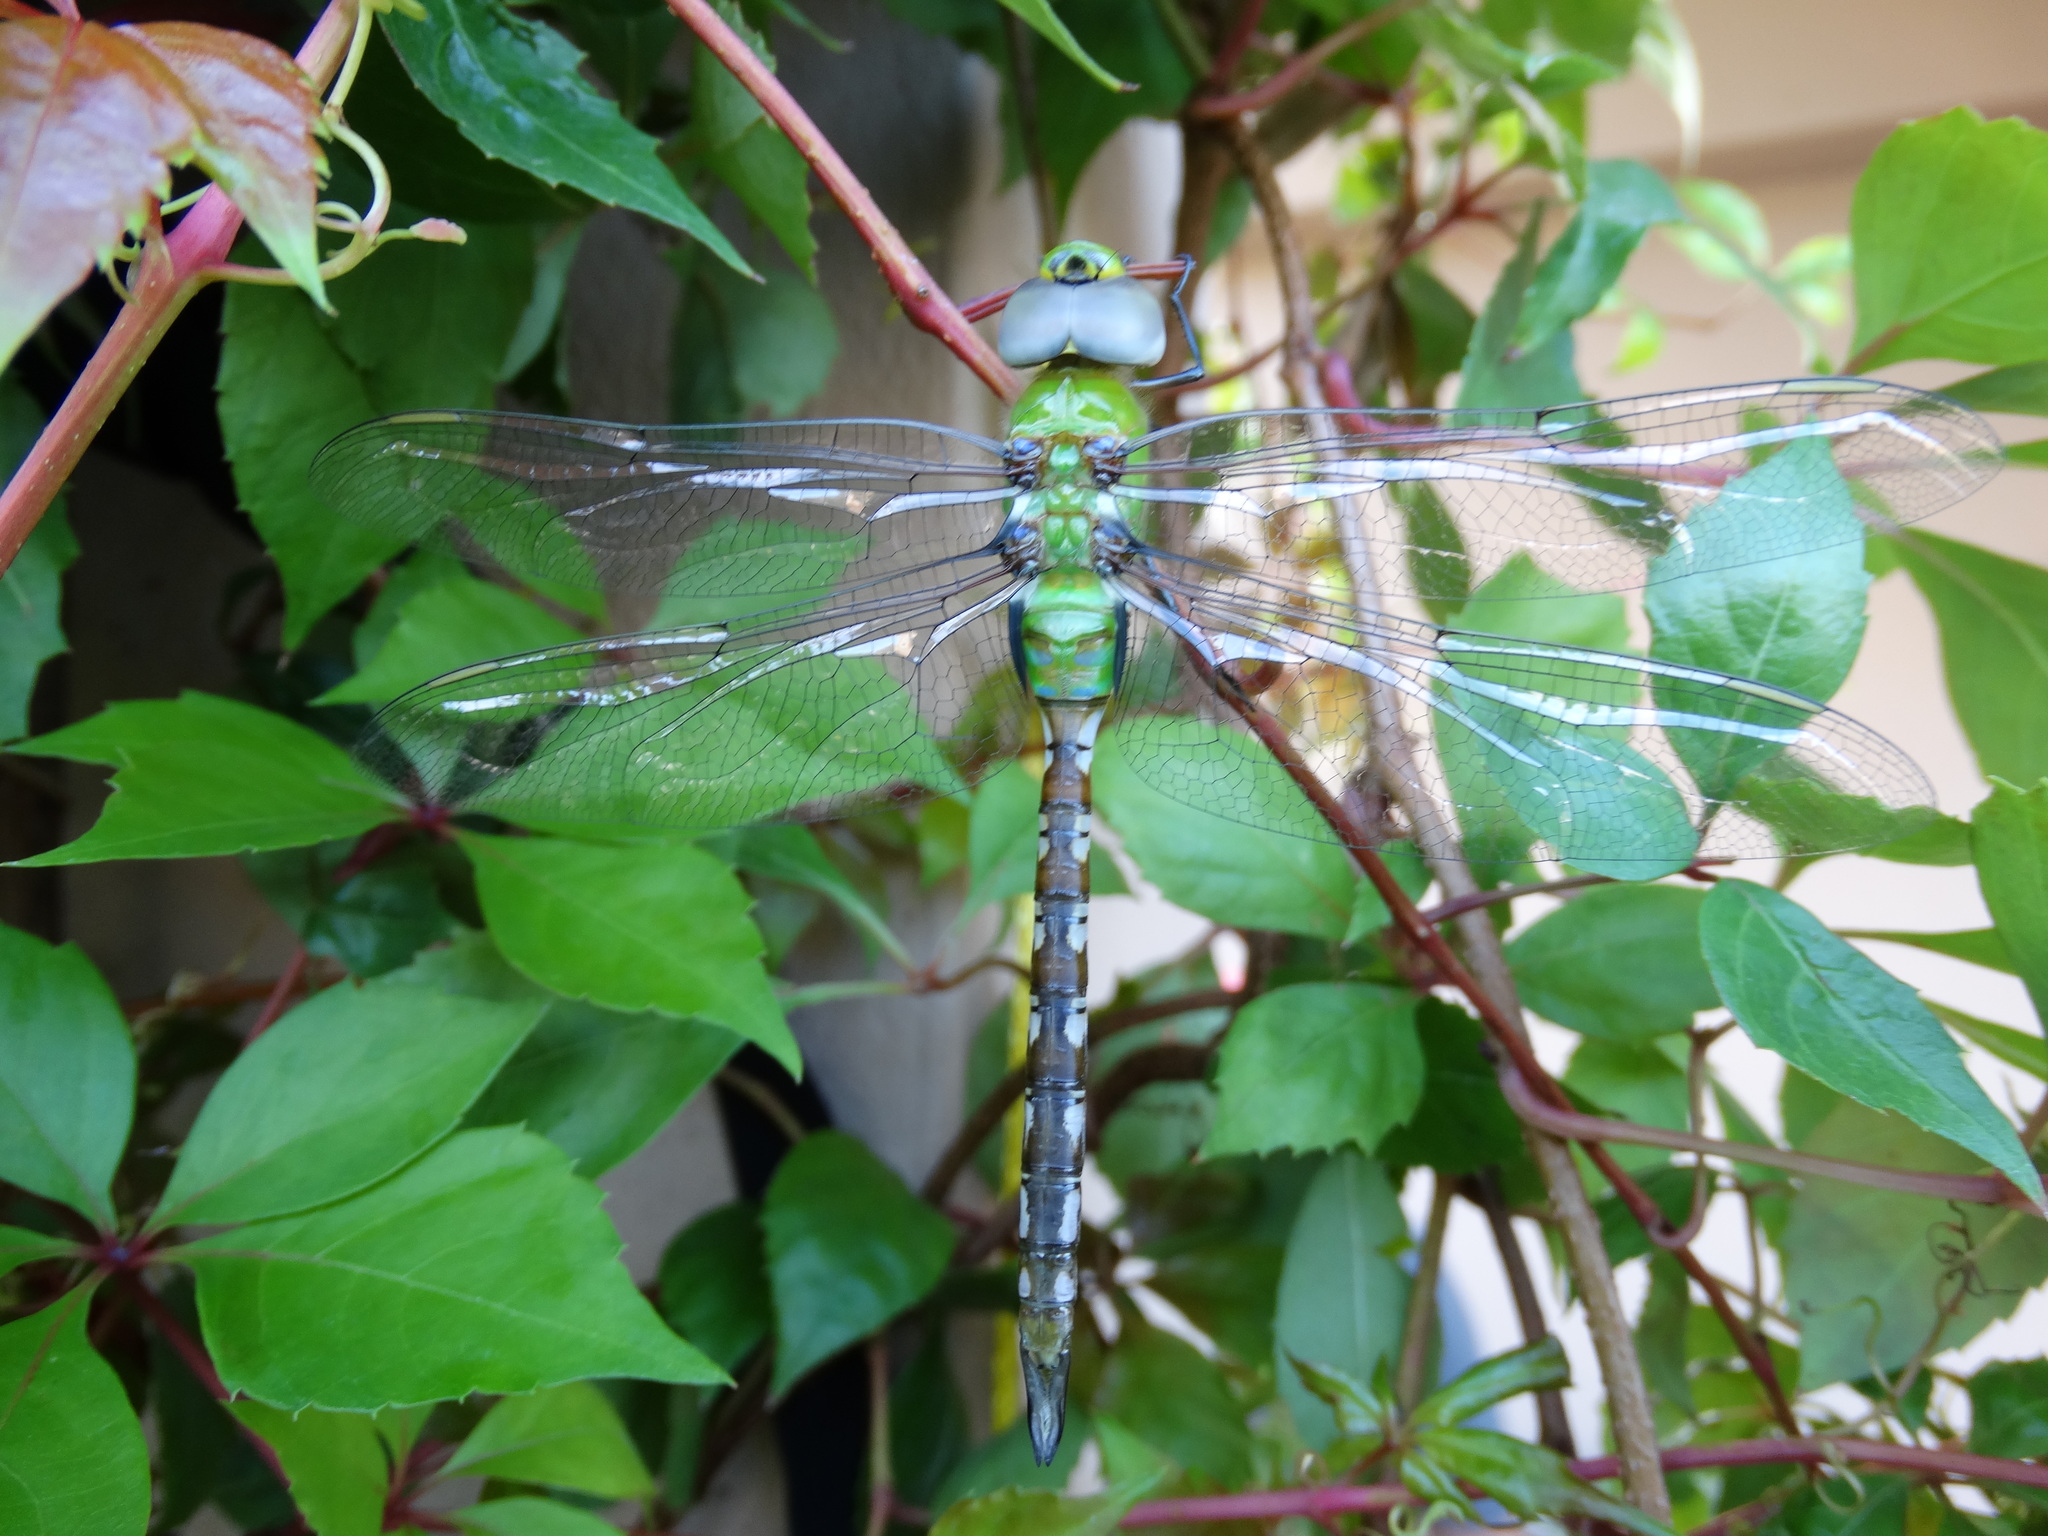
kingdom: Animalia
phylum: Arthropoda
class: Insecta
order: Odonata
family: Aeshnidae
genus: Anax
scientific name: Anax amazili
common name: Amazon darner
